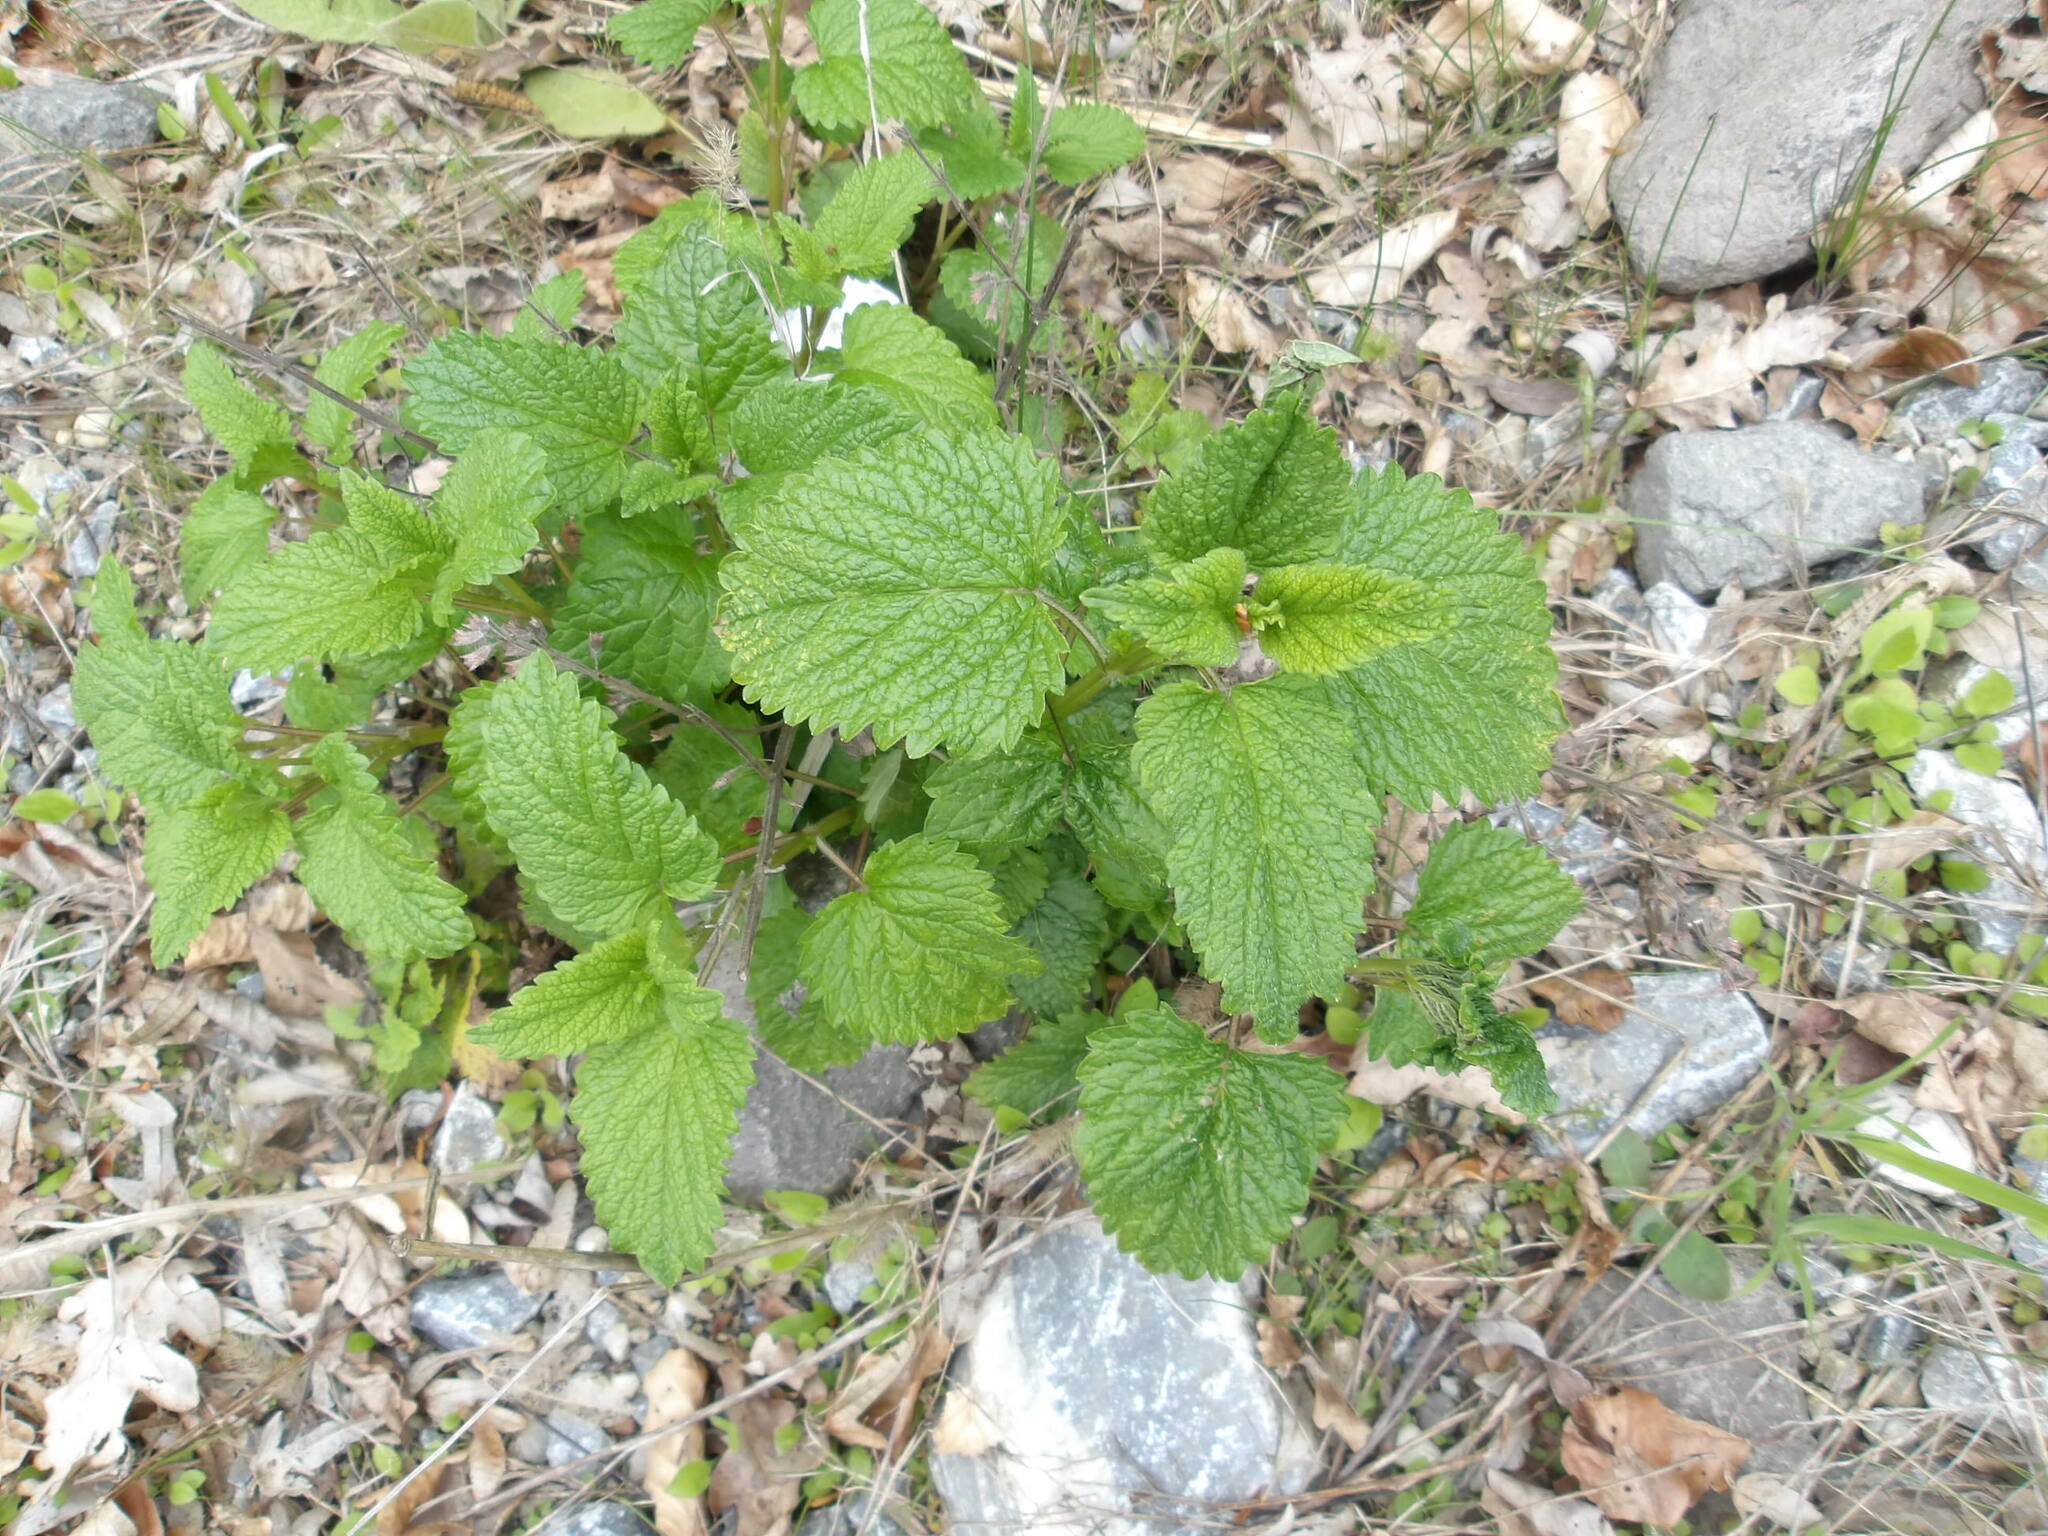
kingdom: Plantae
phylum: Tracheophyta
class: Magnoliopsida
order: Lamiales
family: Lamiaceae
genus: Melissa
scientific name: Melissa officinalis
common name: Balm
